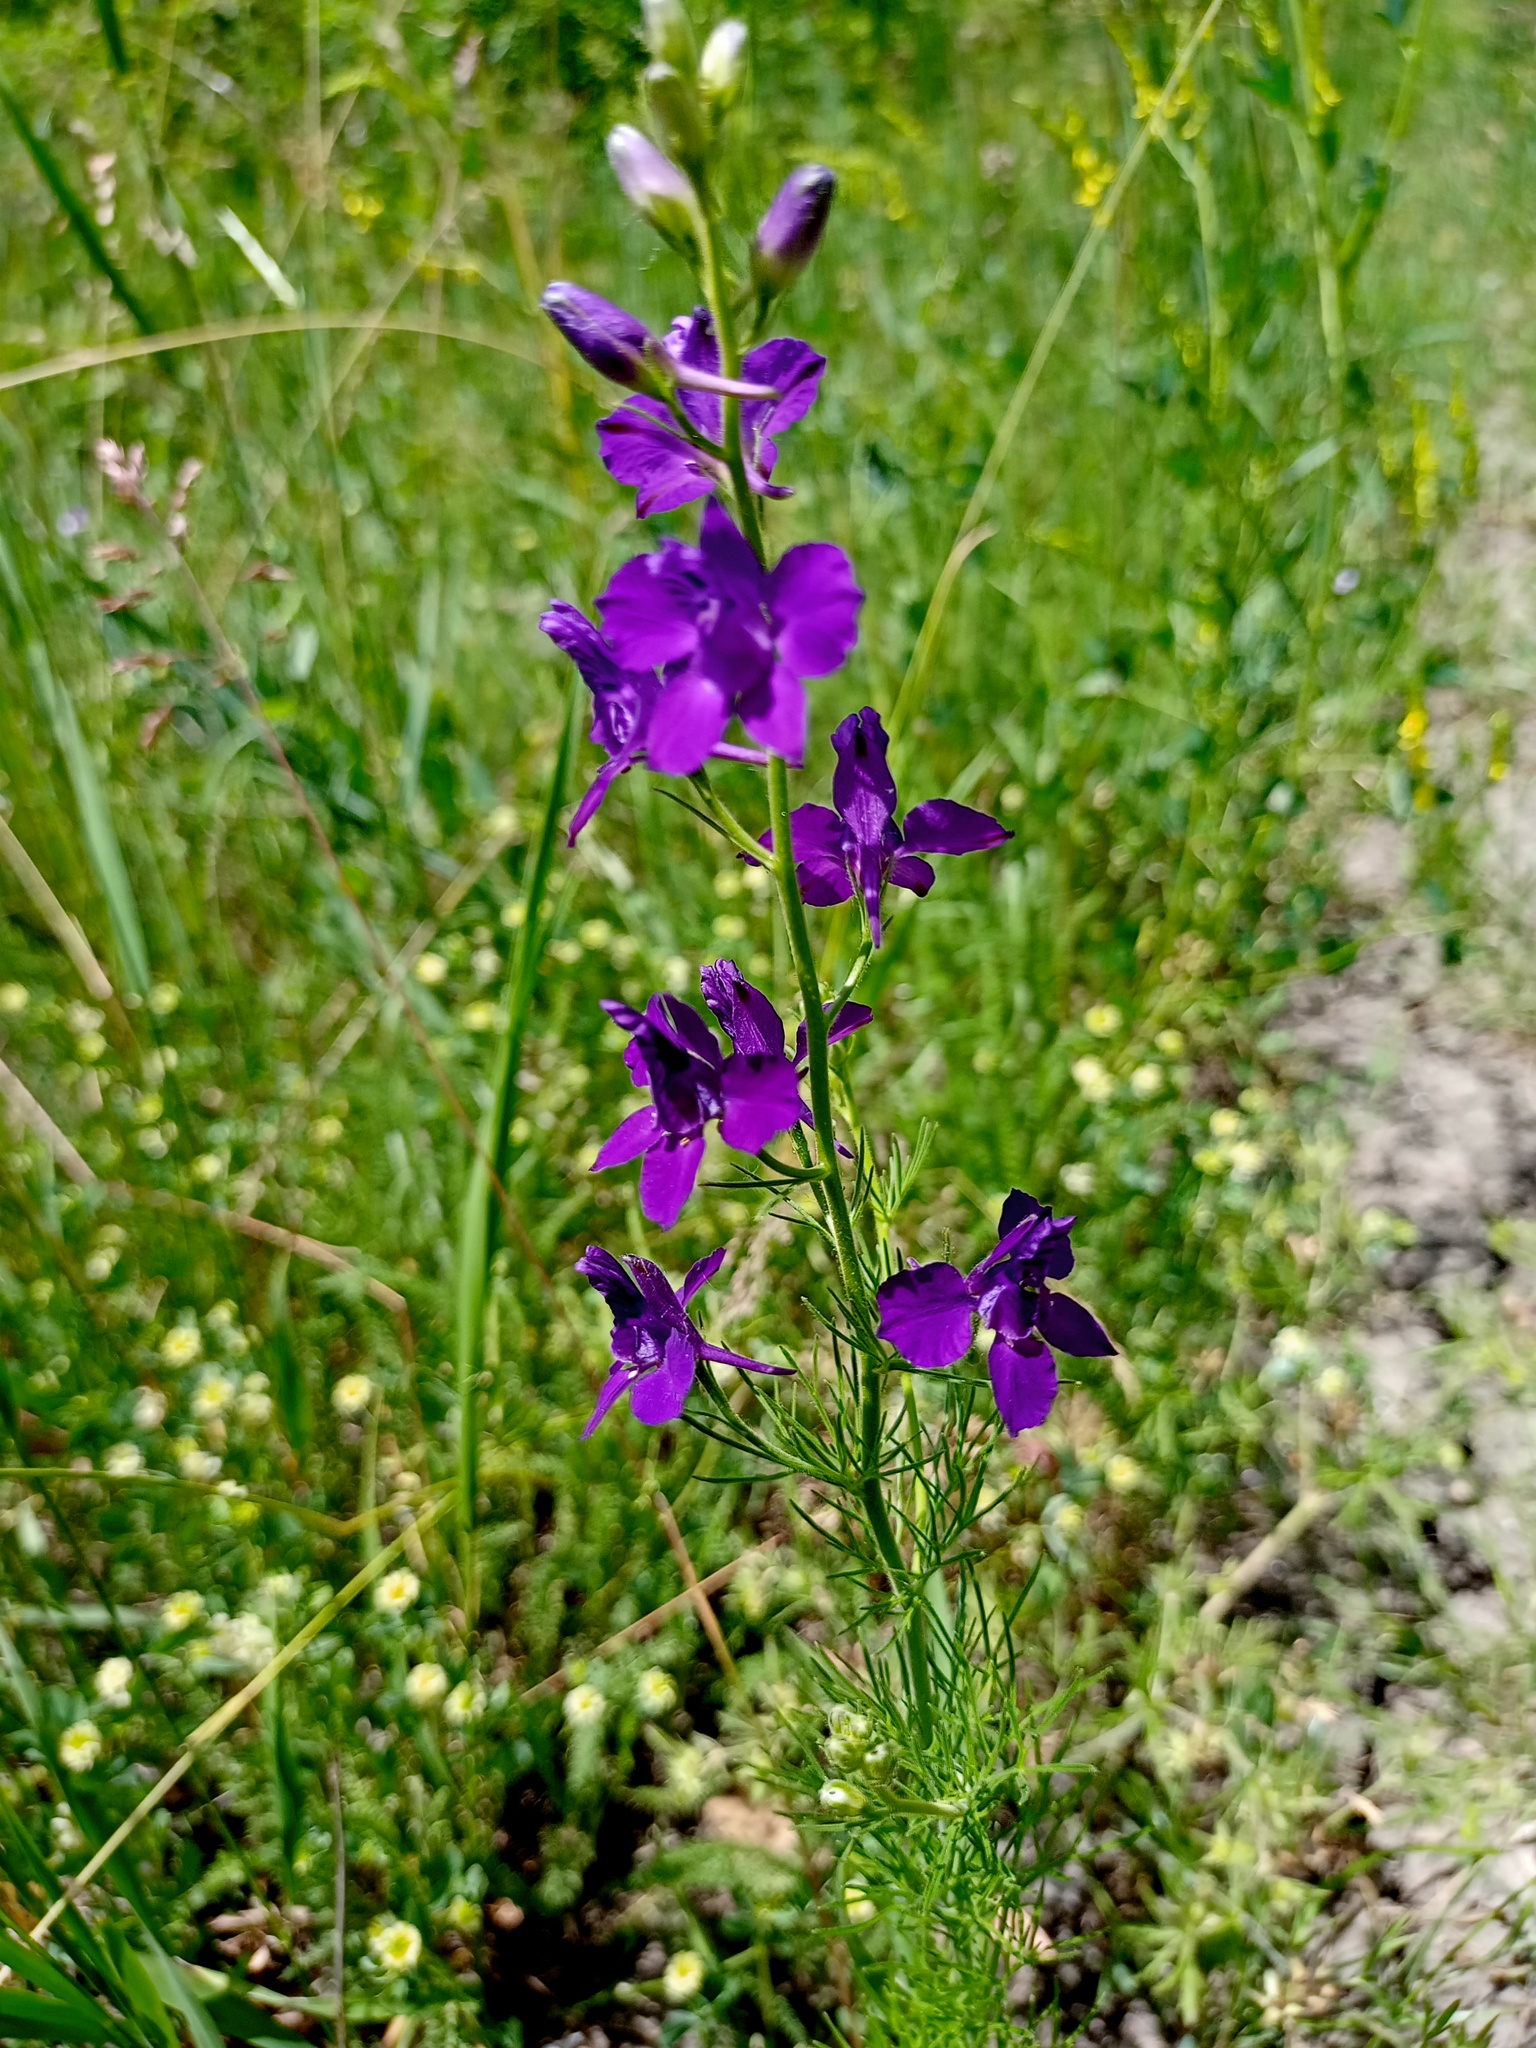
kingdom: Plantae
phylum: Tracheophyta
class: Magnoliopsida
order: Ranunculales
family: Ranunculaceae
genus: Delphinium
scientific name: Delphinium ajacis
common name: Doubtful knight's-spur
